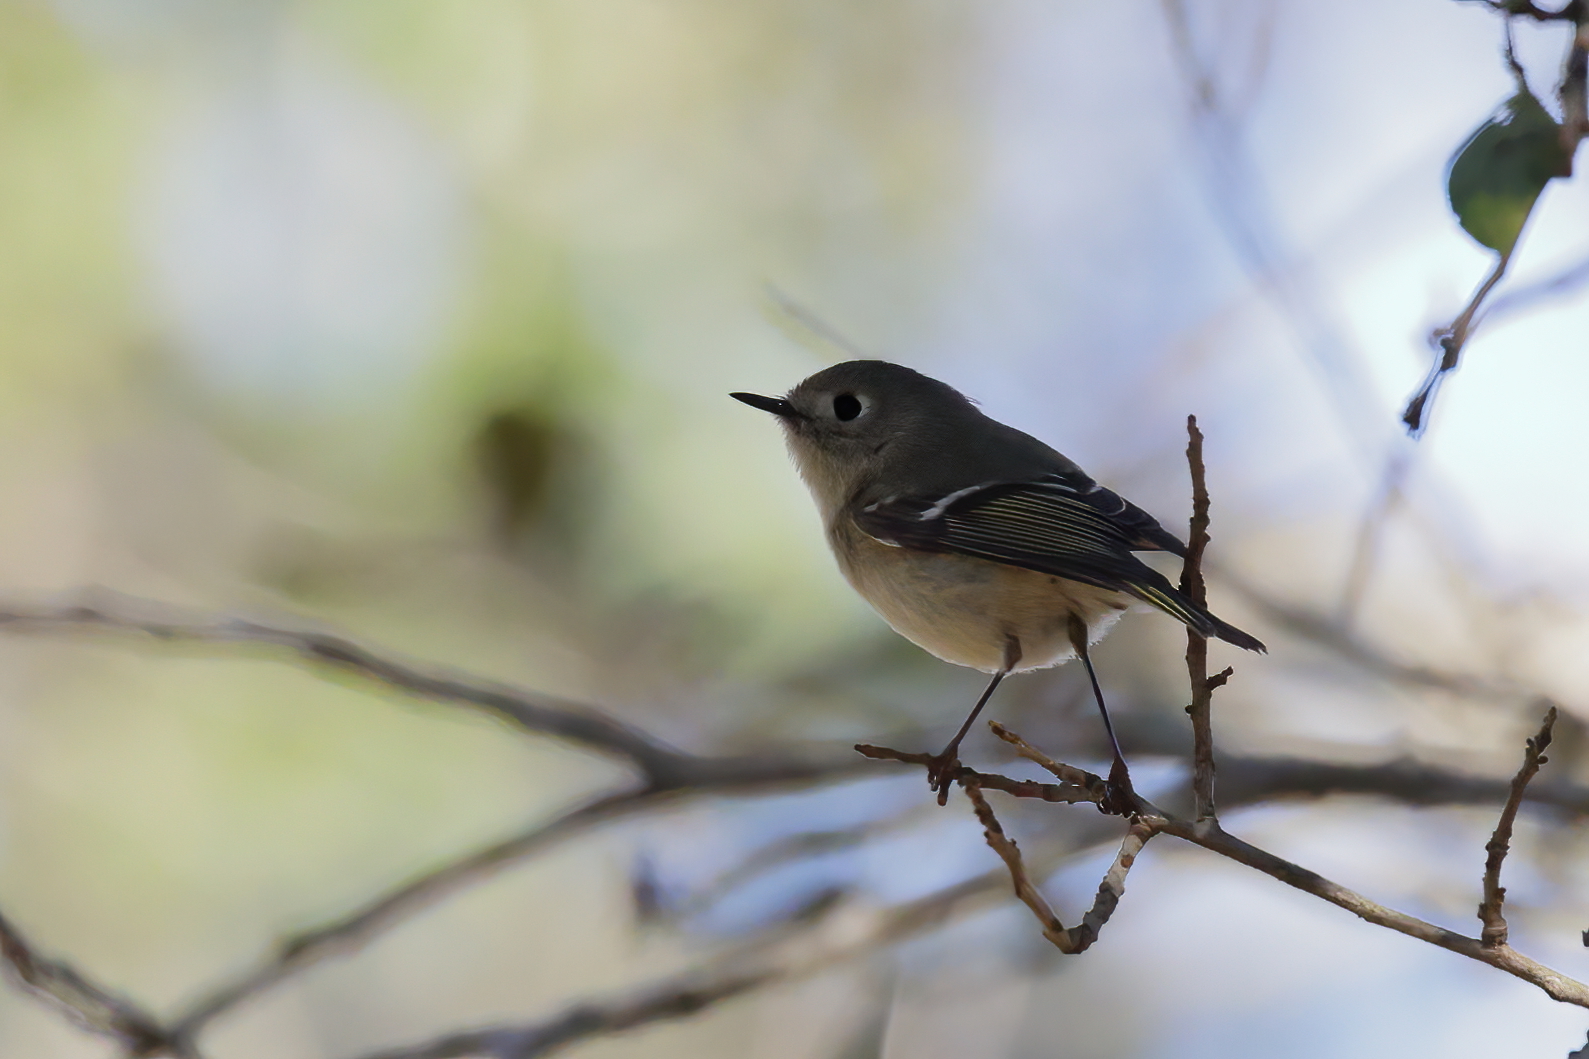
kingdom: Animalia
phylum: Chordata
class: Aves
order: Passeriformes
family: Regulidae
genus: Regulus
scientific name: Regulus calendula
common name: Ruby-crowned kinglet
